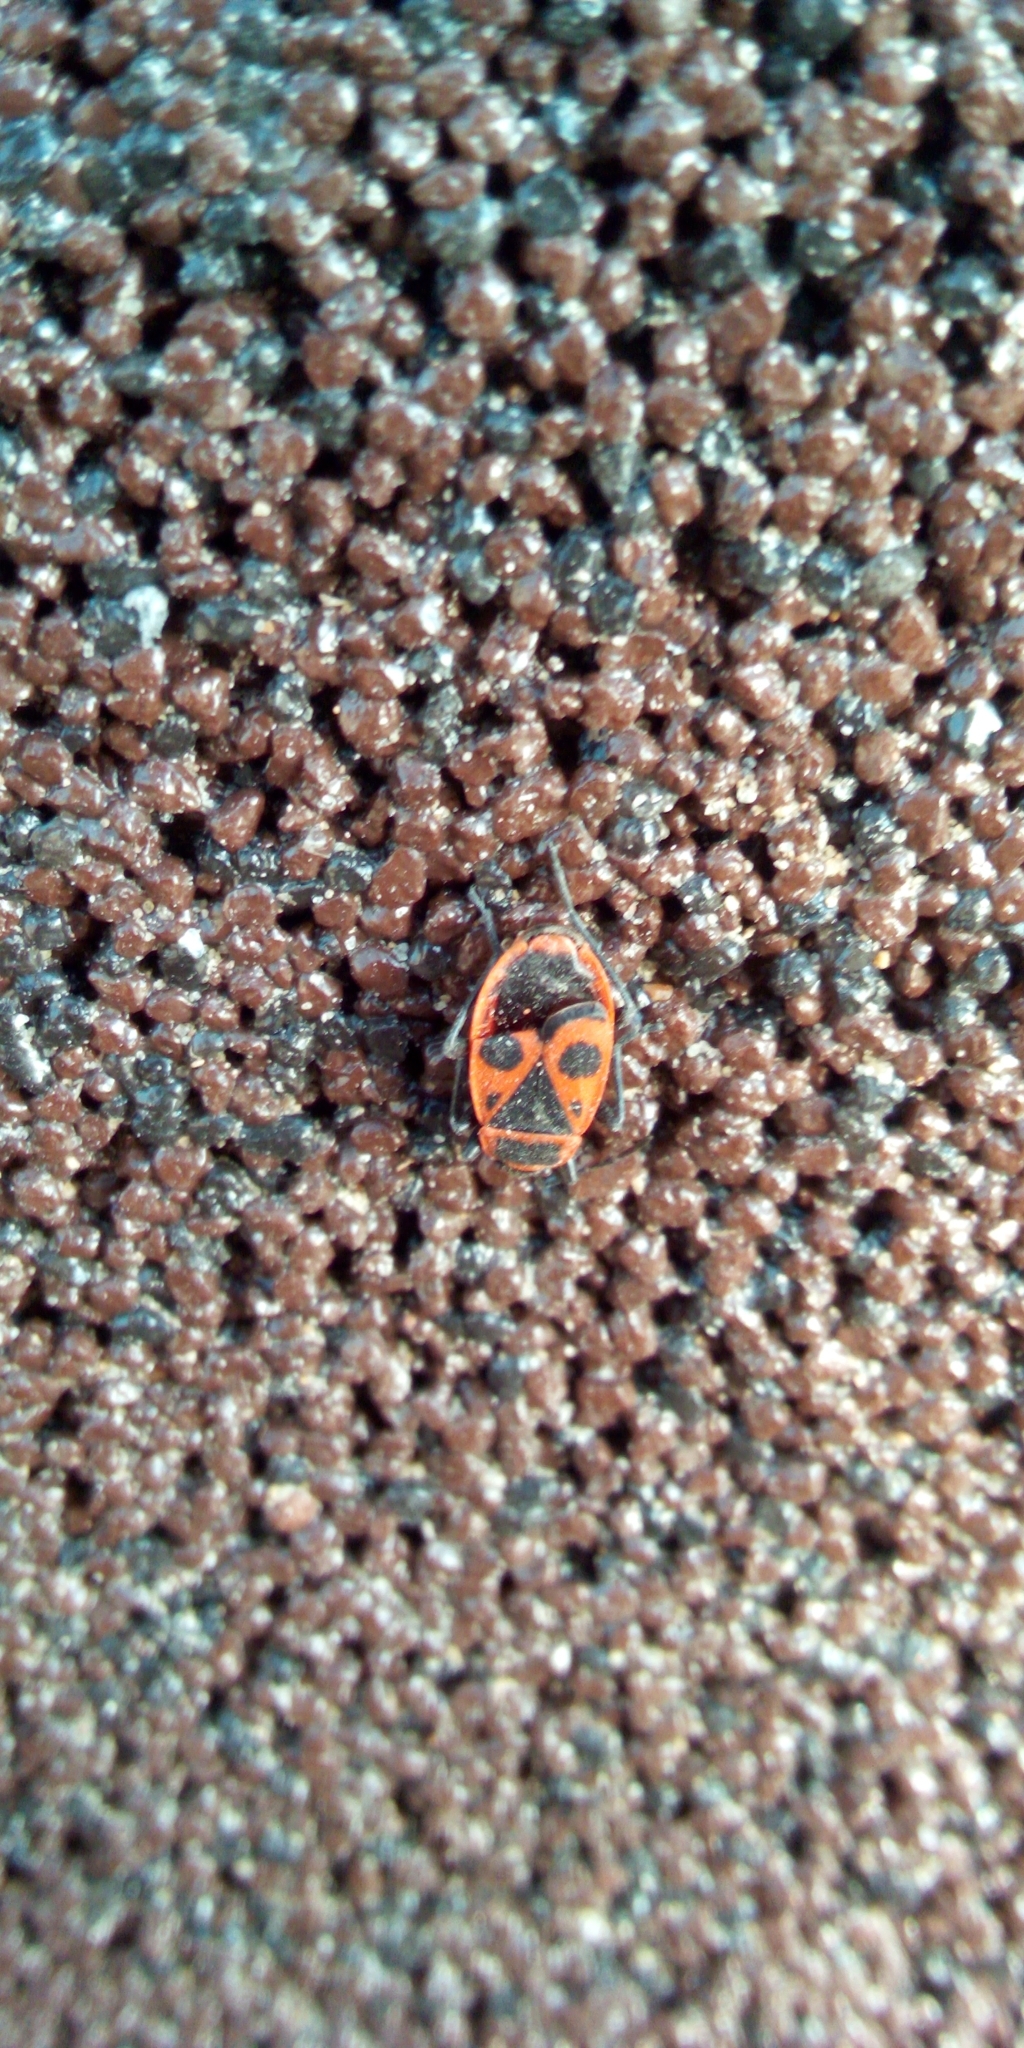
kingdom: Animalia
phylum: Arthropoda
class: Insecta
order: Hemiptera
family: Pyrrhocoridae
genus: Pyrrhocoris
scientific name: Pyrrhocoris apterus
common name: Firebug
